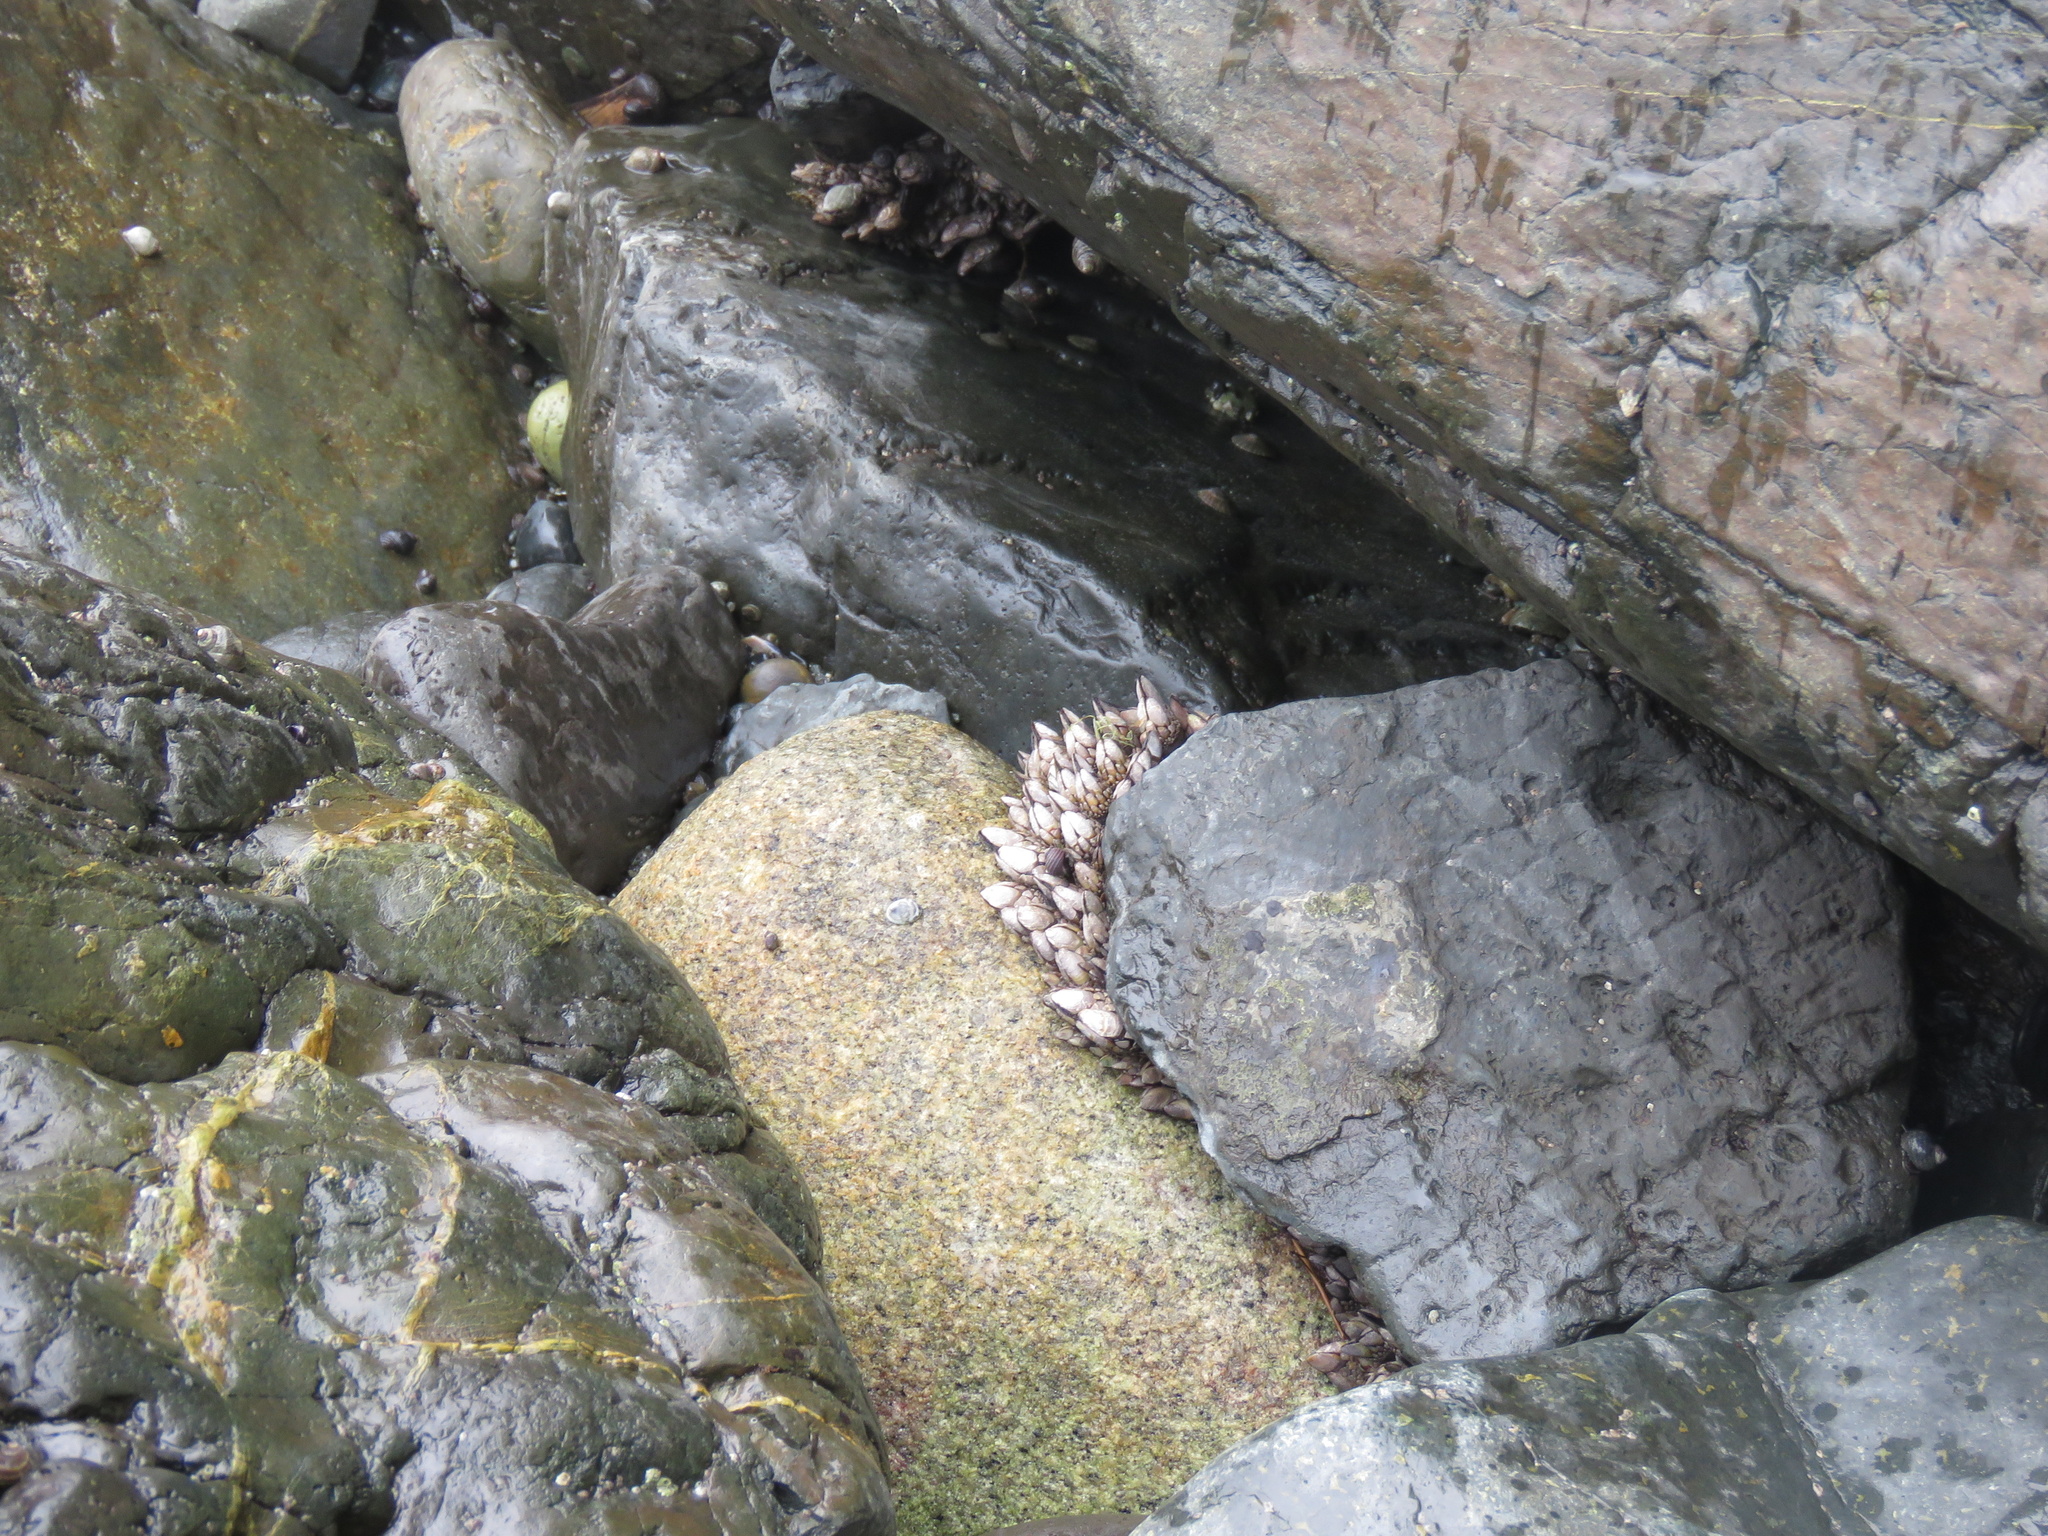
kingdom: Animalia
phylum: Arthropoda
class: Maxillopoda
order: Pedunculata
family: Pollicipedidae
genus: Pollicipes
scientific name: Pollicipes polymerus
